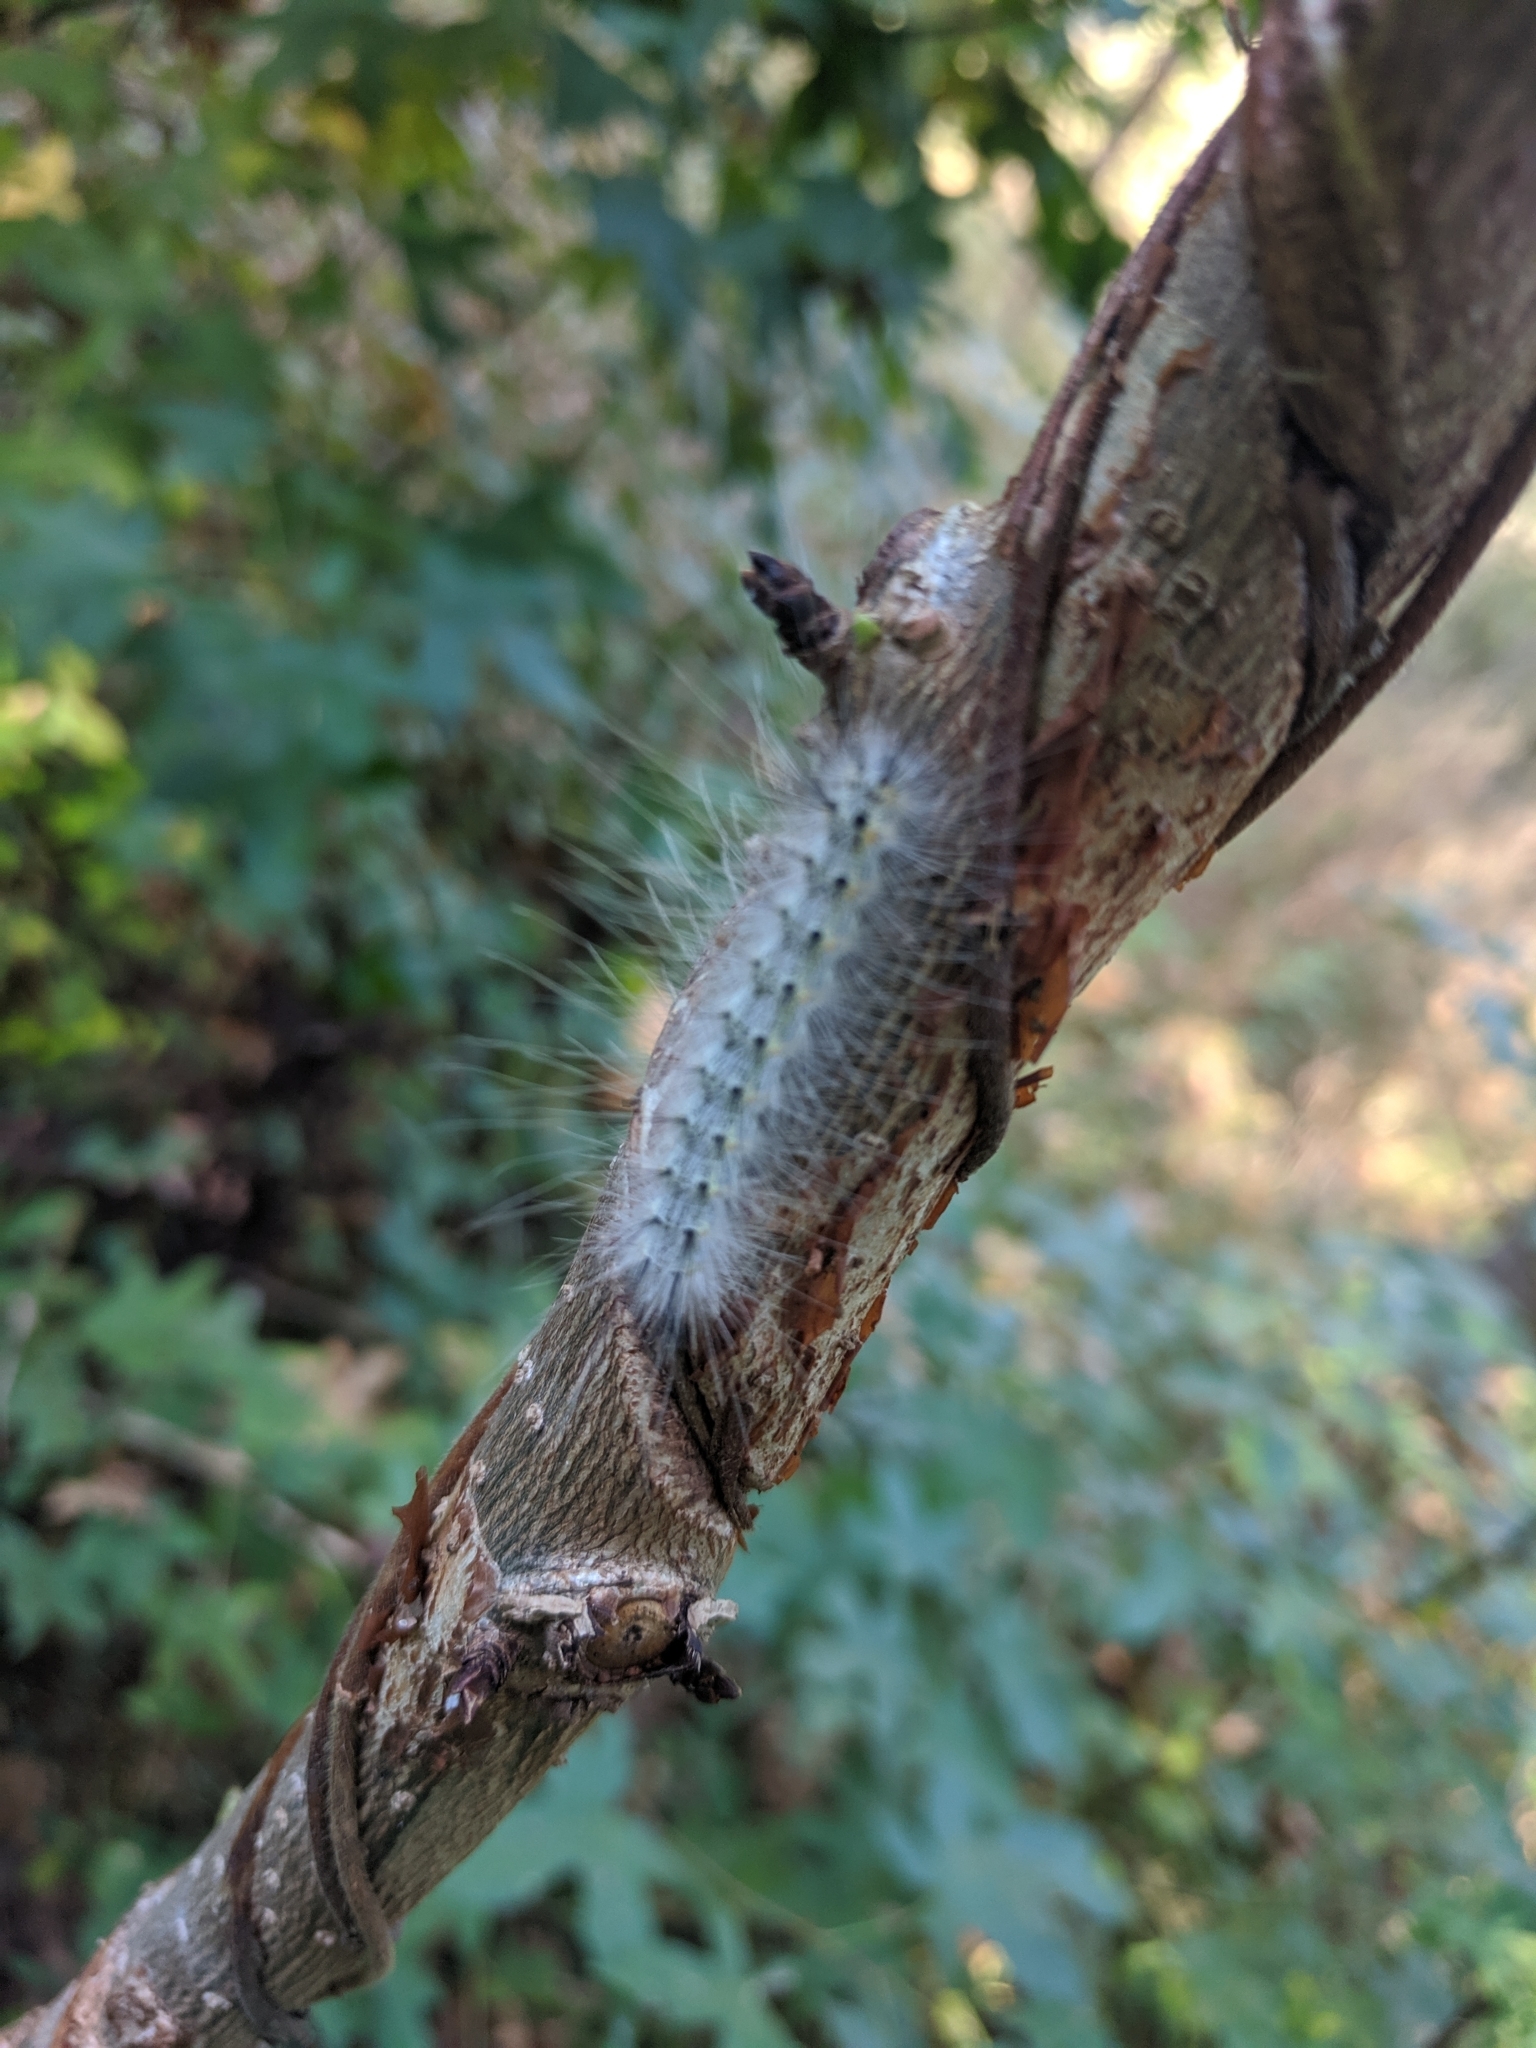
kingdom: Animalia
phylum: Arthropoda
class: Insecta
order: Lepidoptera
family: Erebidae
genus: Hyphantria
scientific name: Hyphantria cunea
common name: American white moth
